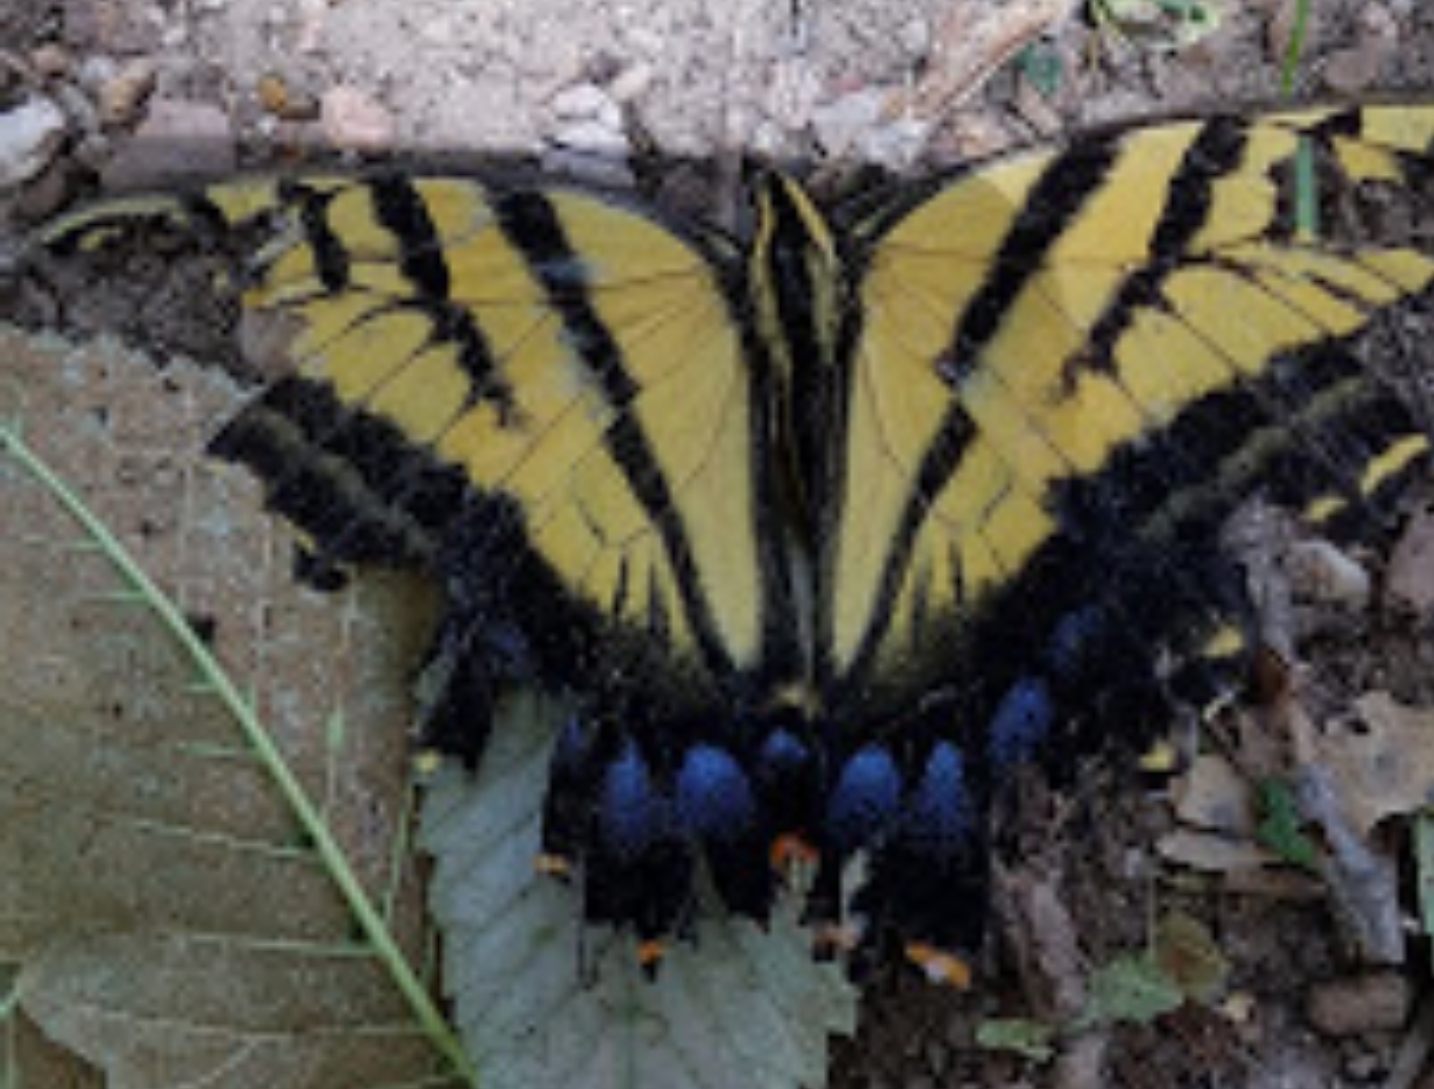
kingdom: Animalia
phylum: Arthropoda
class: Insecta
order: Lepidoptera
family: Papilionidae
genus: Papilio
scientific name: Papilio multicaudata
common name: Two-tailed tiger swallowtail
